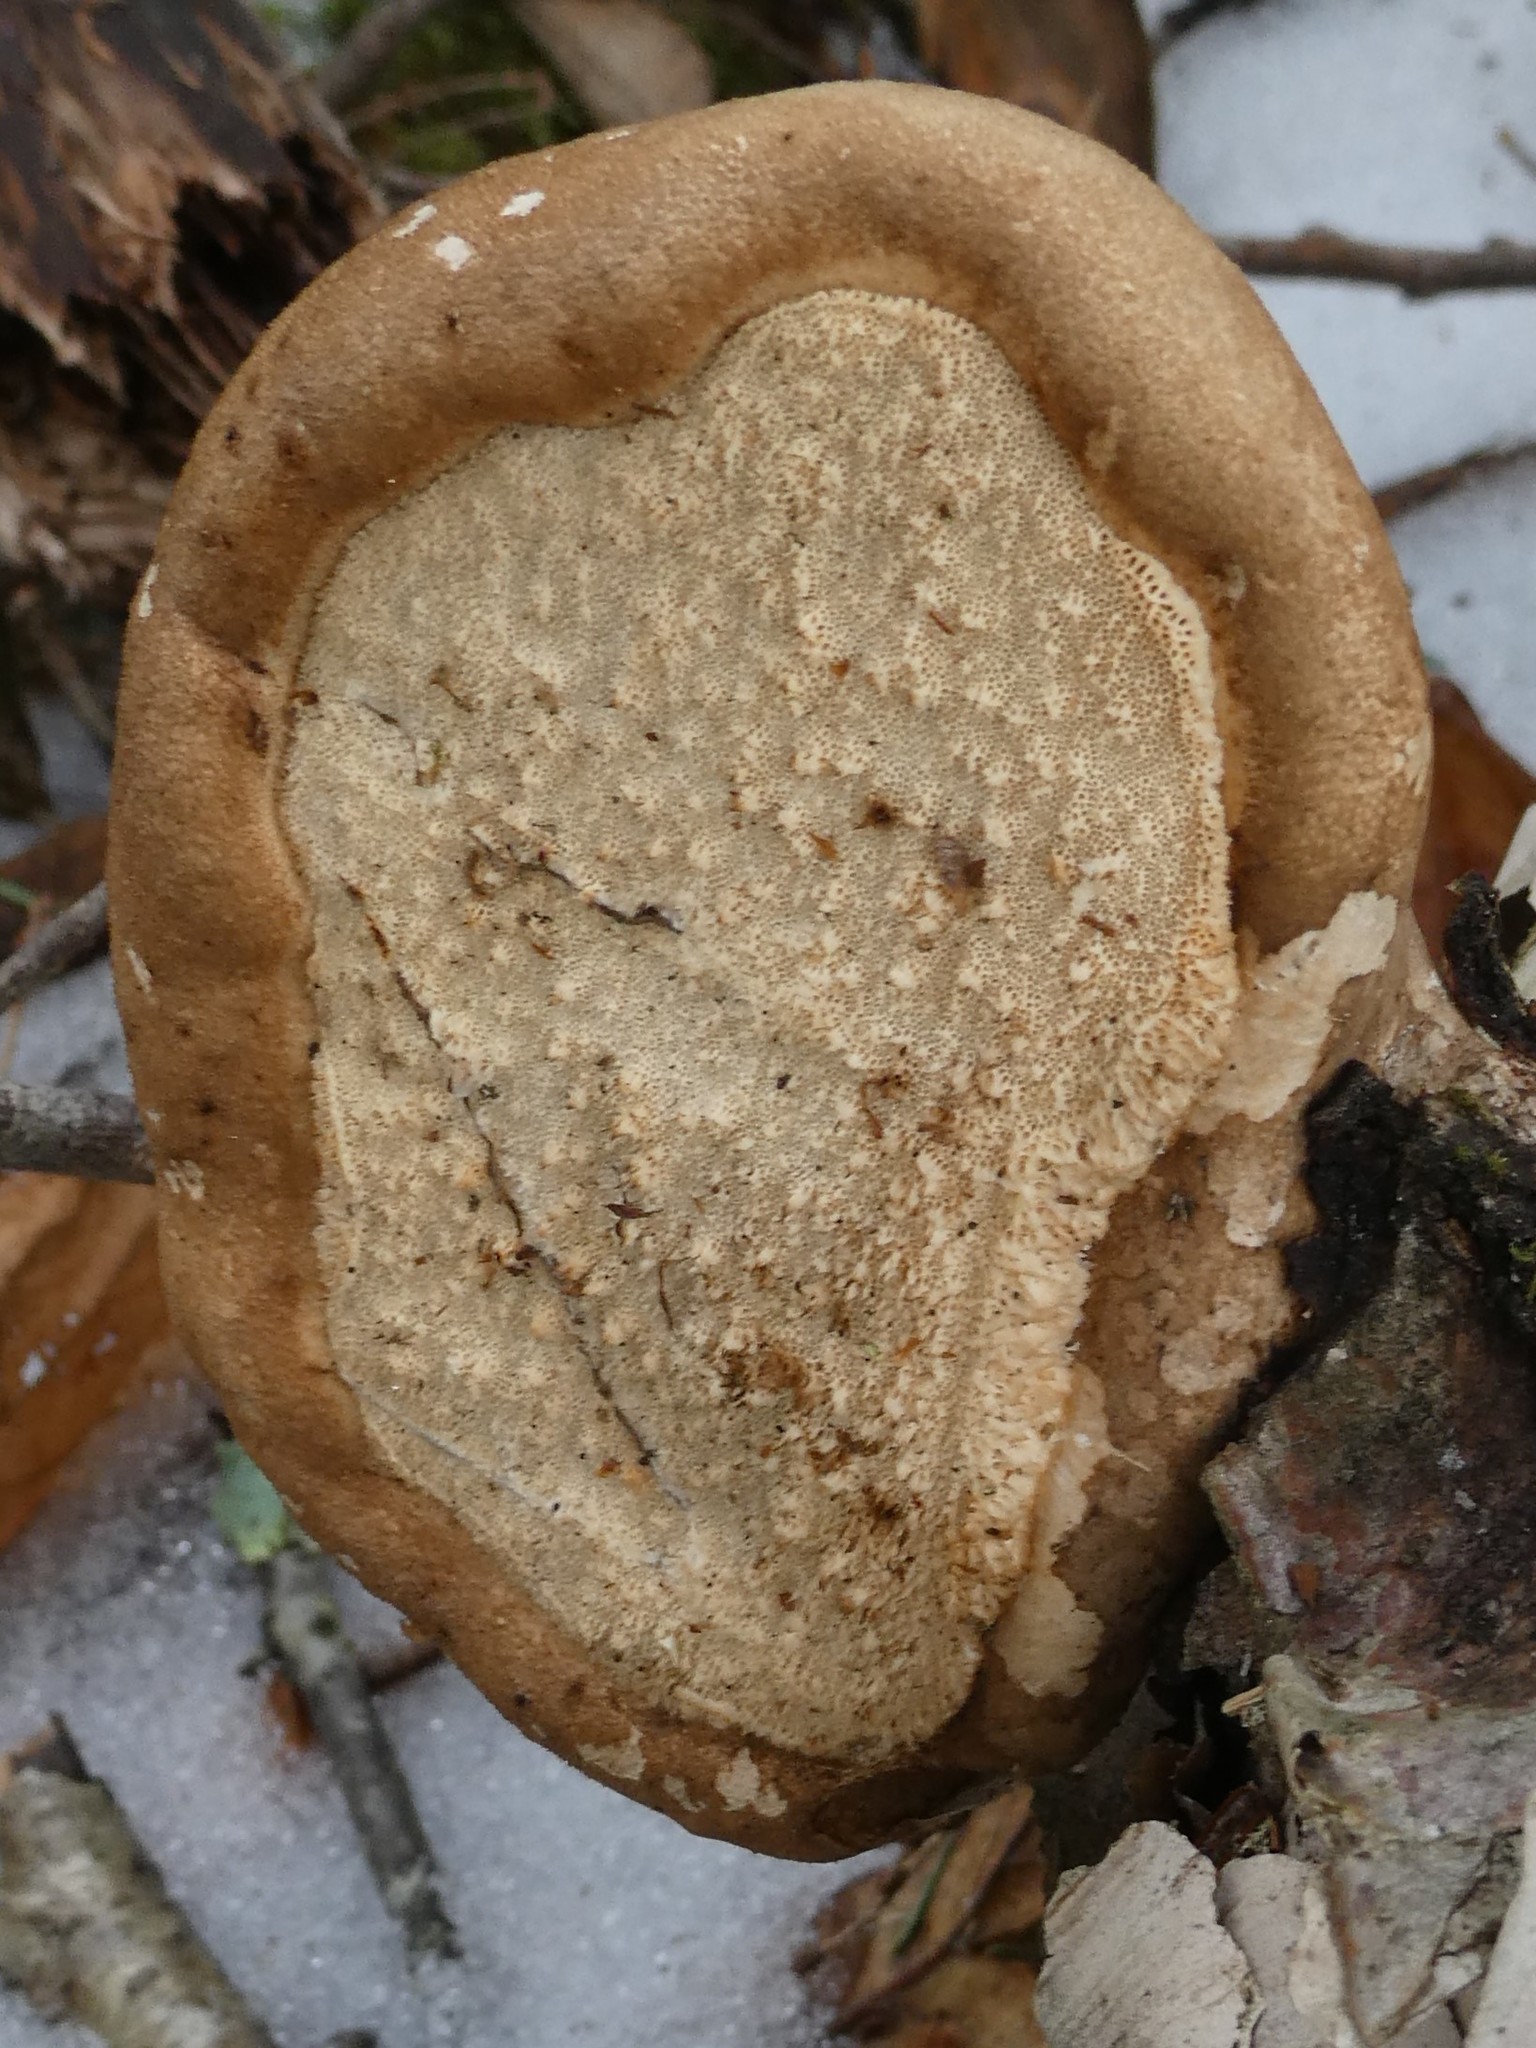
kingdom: Fungi
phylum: Basidiomycota
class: Agaricomycetes
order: Polyporales
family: Fomitopsidaceae
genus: Fomitopsis
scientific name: Fomitopsis betulina
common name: Birch polypore
